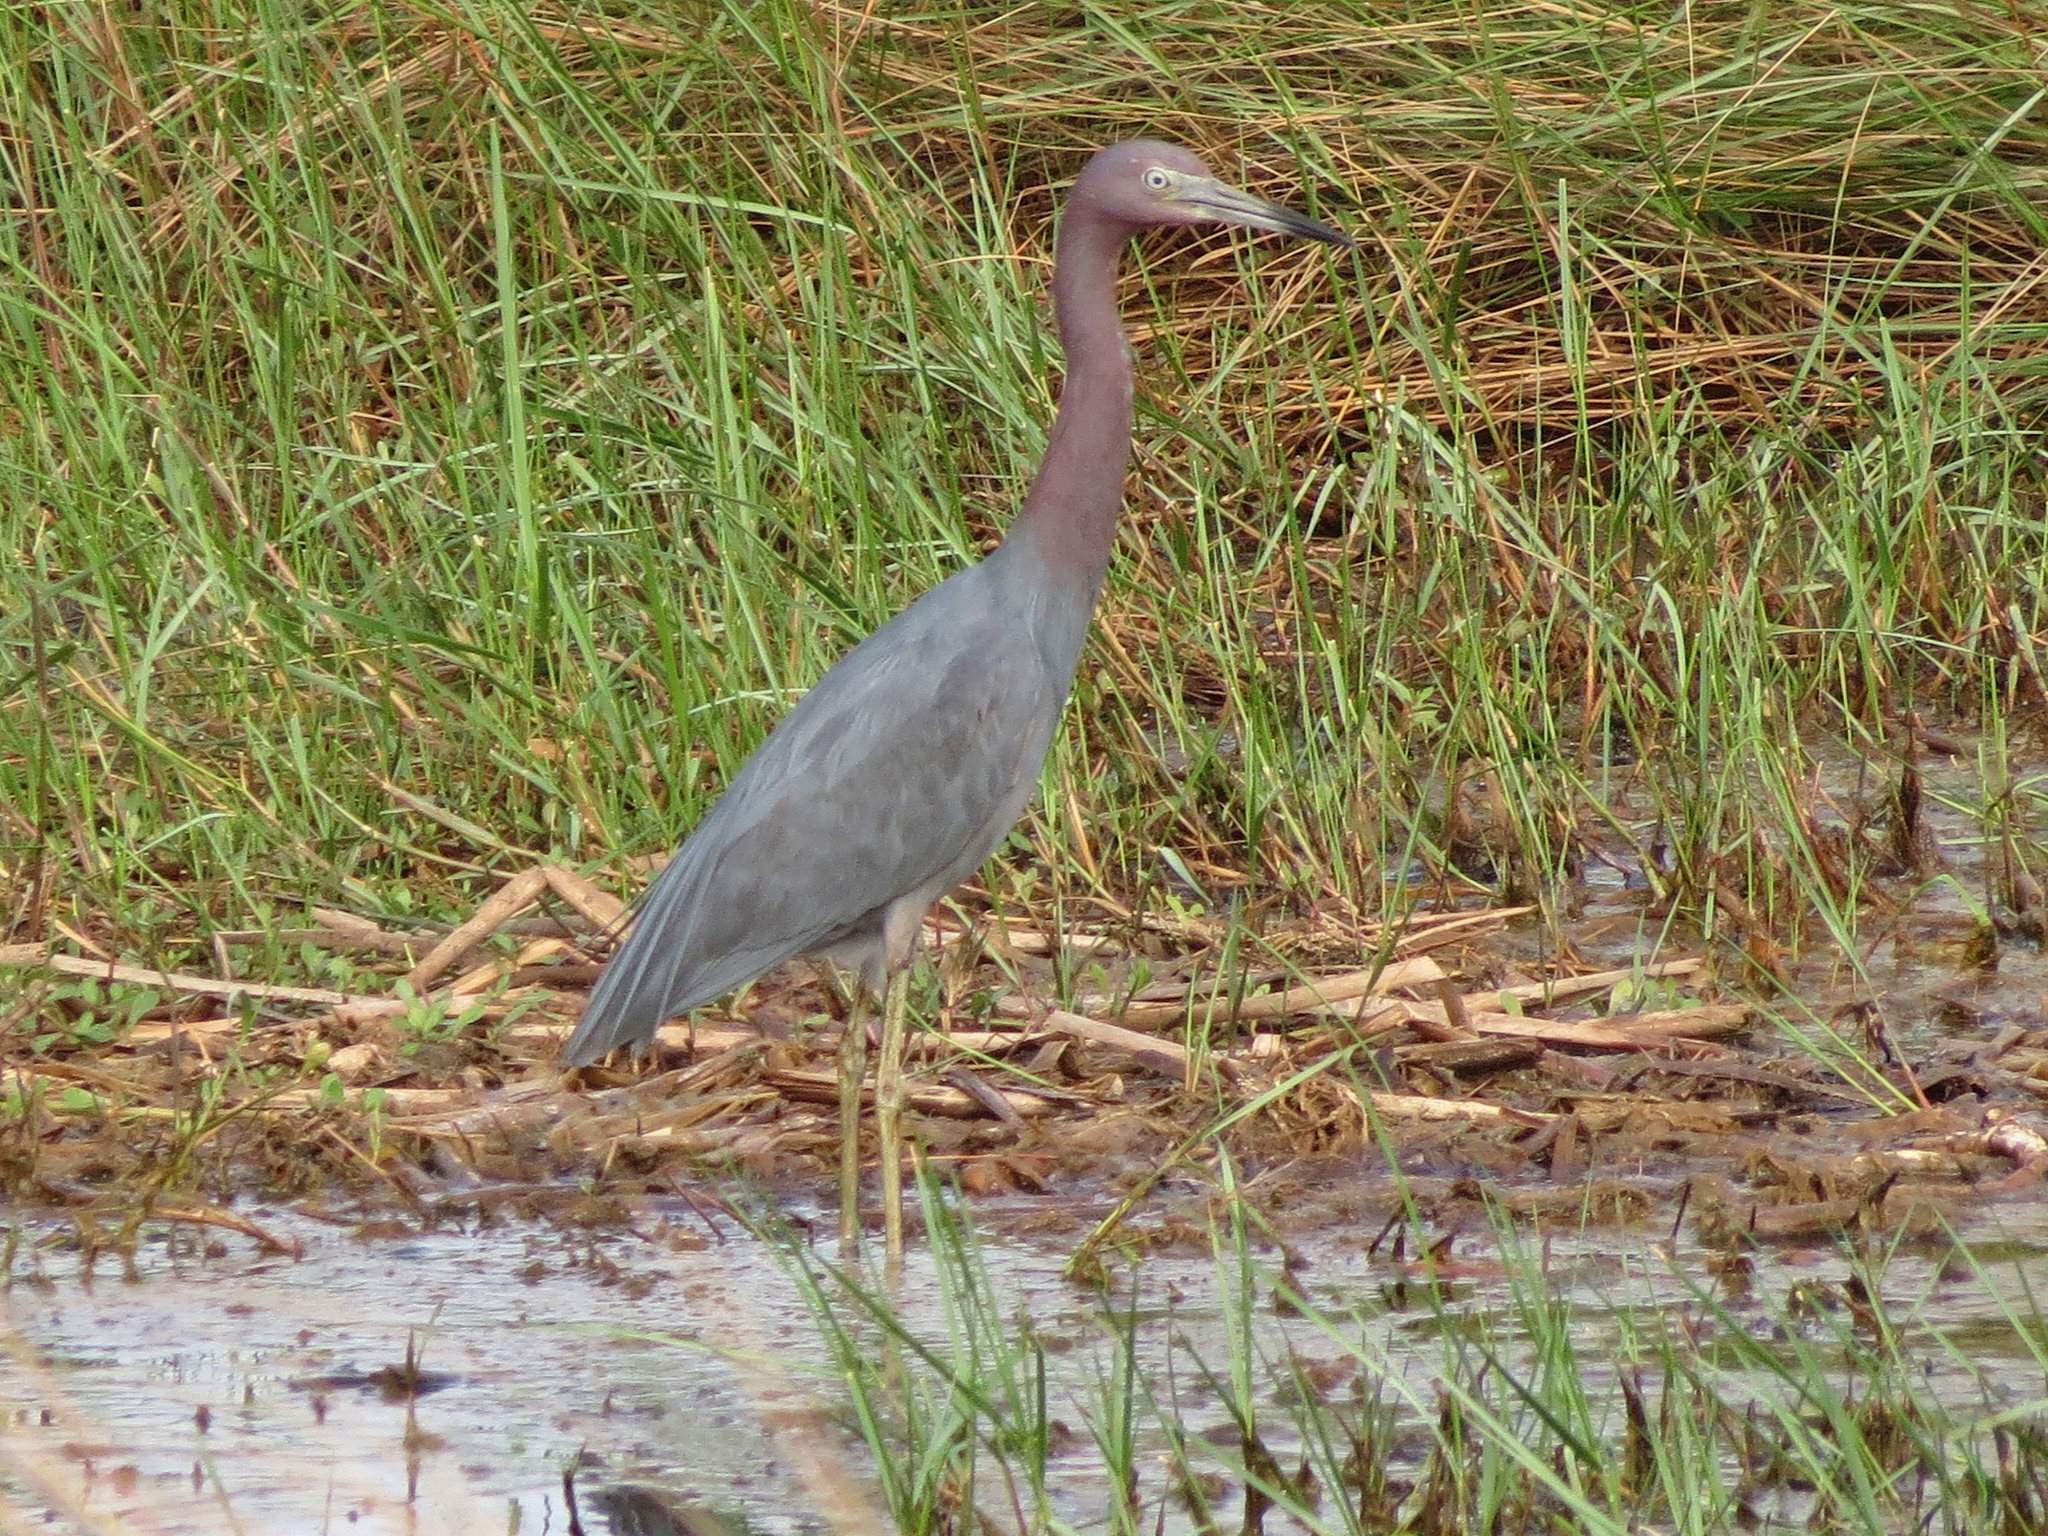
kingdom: Animalia
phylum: Chordata
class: Aves
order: Pelecaniformes
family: Ardeidae
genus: Egretta
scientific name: Egretta caerulea
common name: Little blue heron
